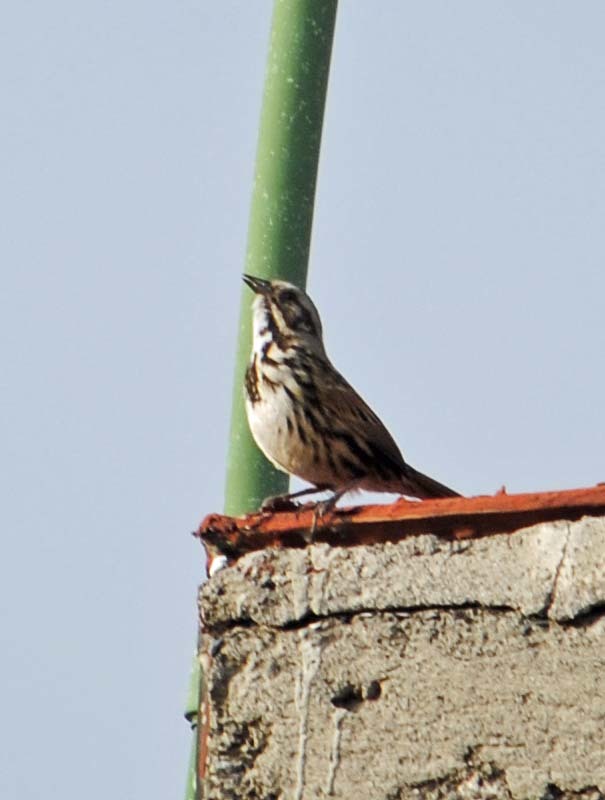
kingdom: Animalia
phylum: Chordata
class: Aves
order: Passeriformes
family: Passerellidae
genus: Melospiza
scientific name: Melospiza melodia
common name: Song sparrow
